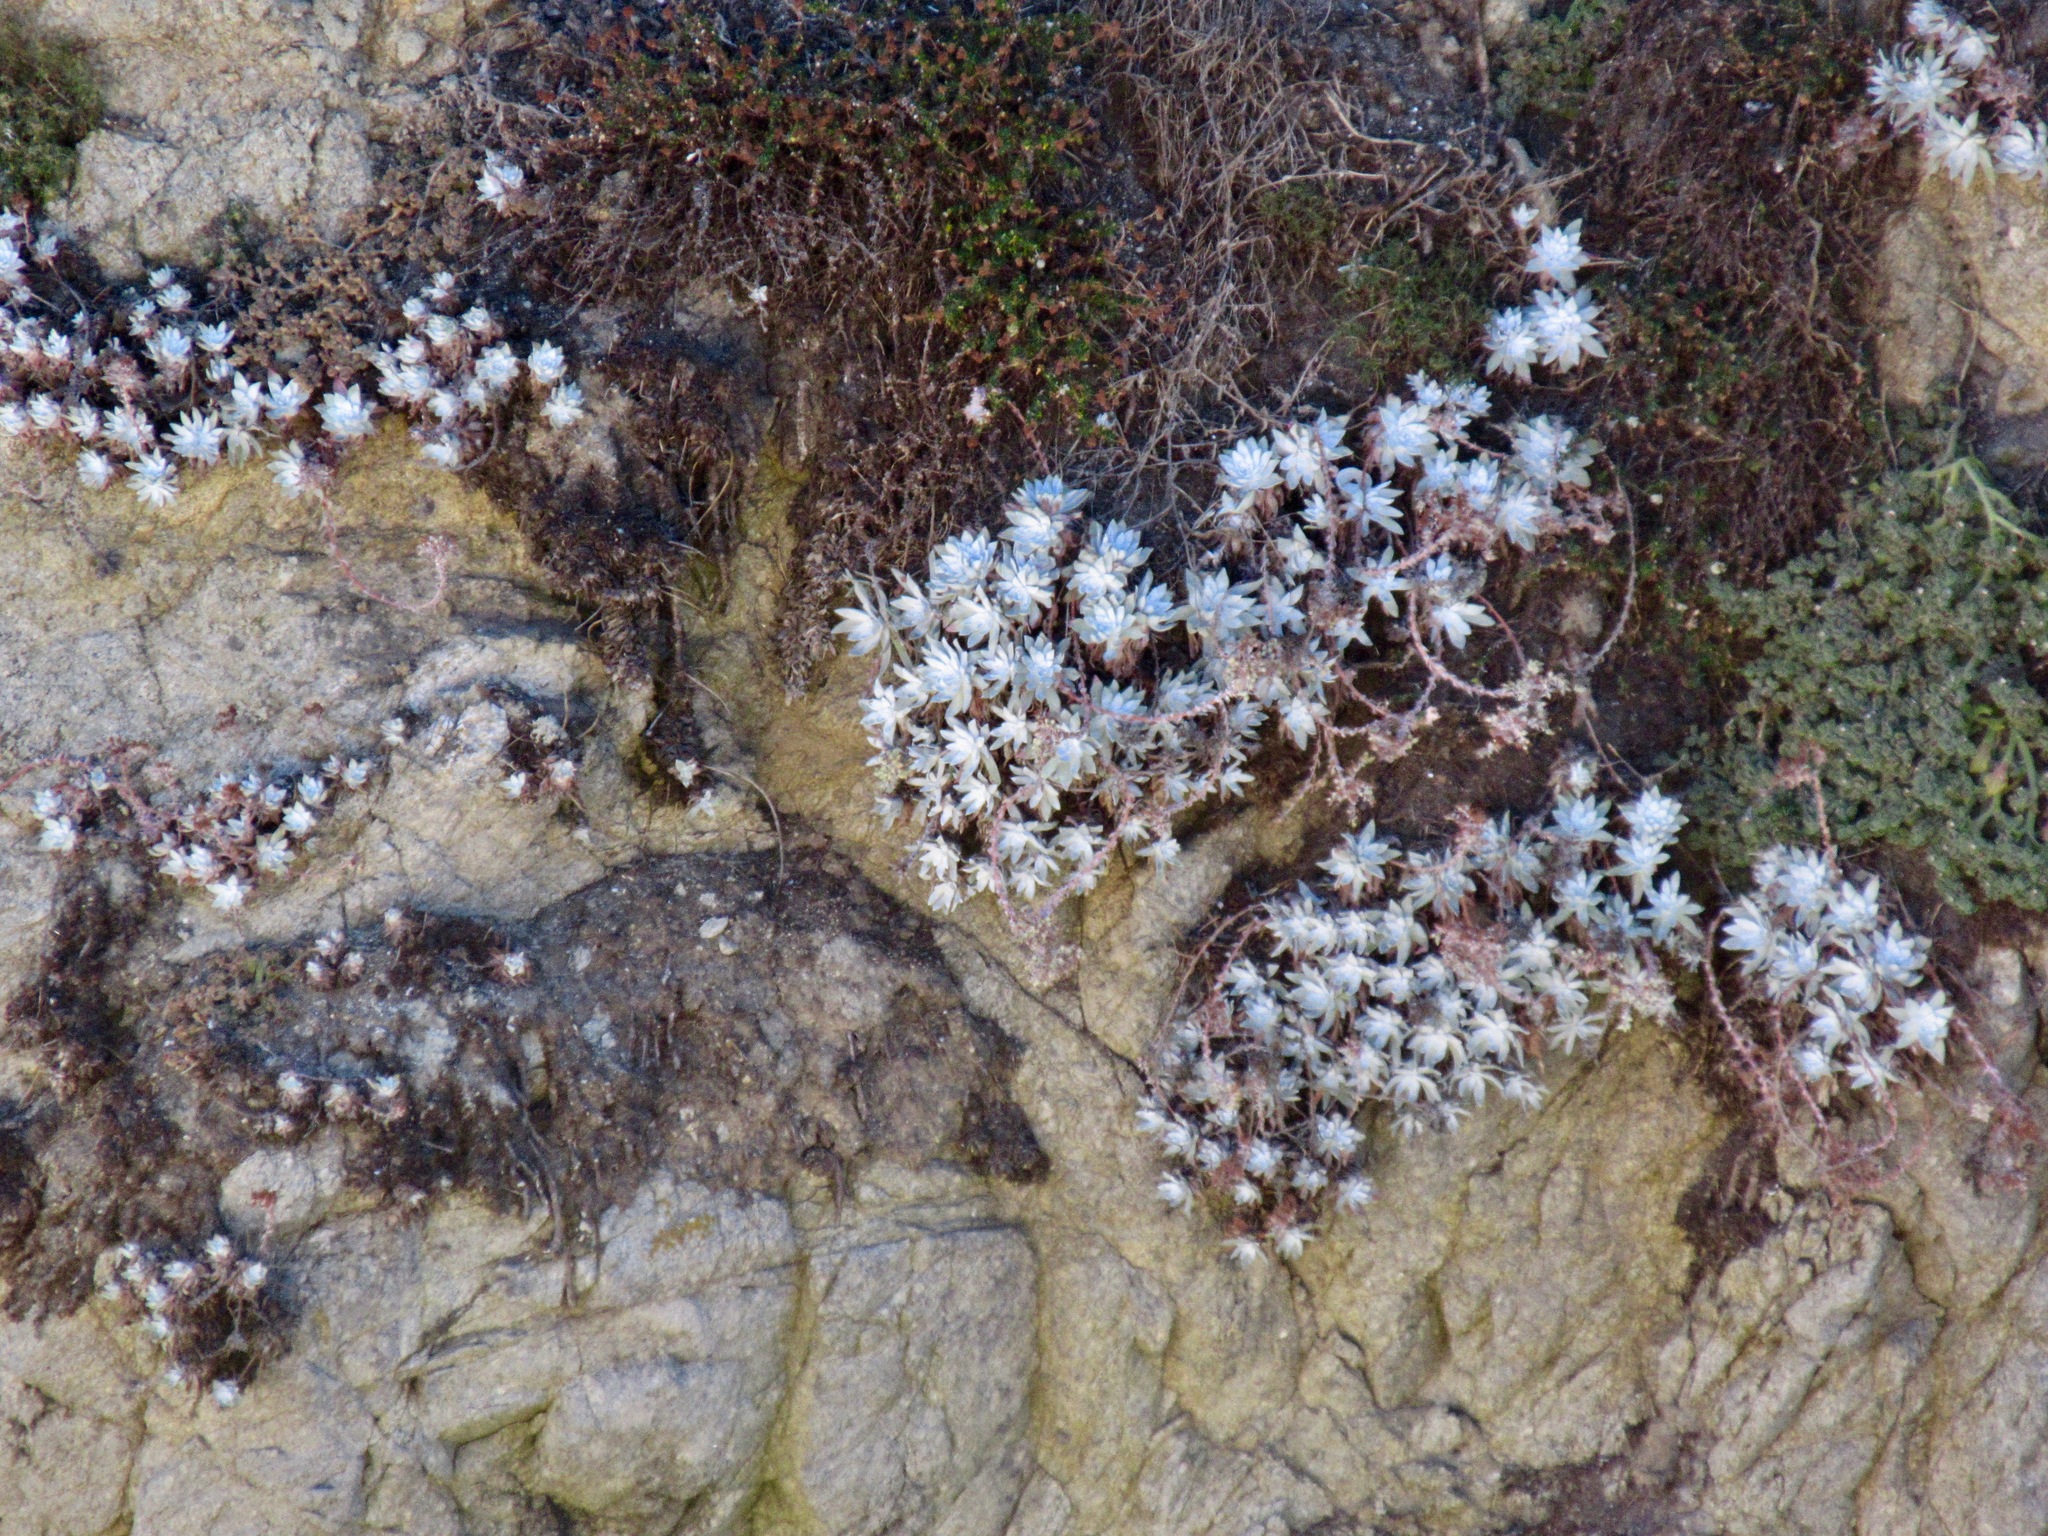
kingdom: Plantae
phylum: Tracheophyta
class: Magnoliopsida
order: Saxifragales
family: Crassulaceae
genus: Dudleya
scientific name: Dudleya farinosa
